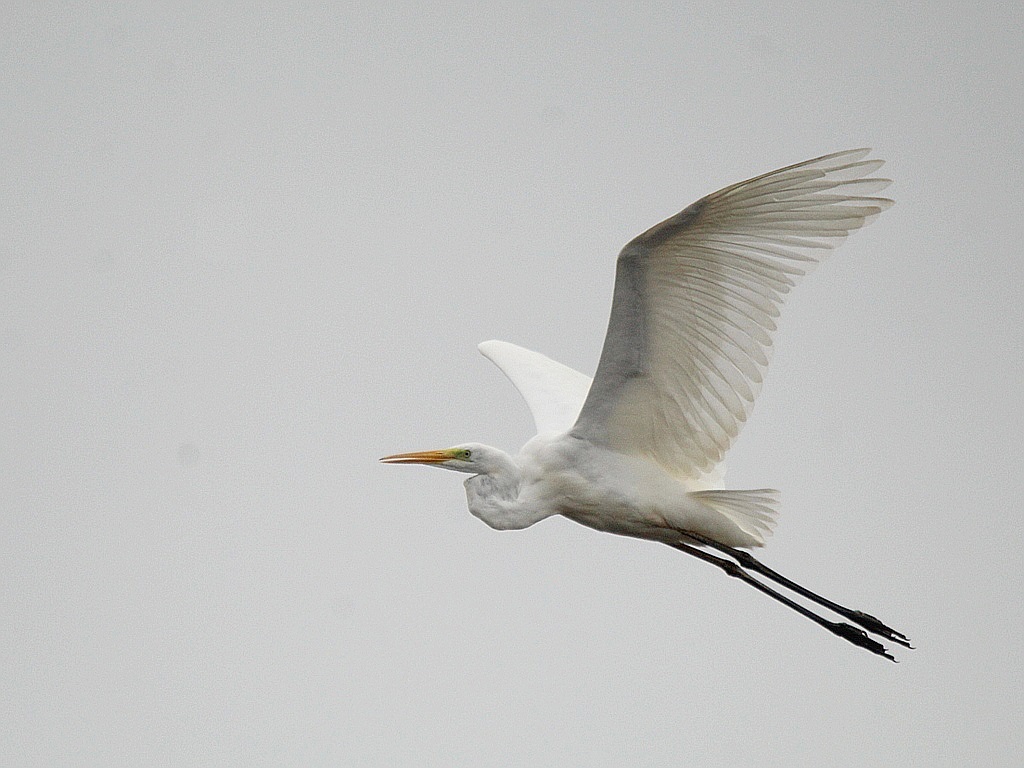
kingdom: Animalia
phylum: Chordata
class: Aves
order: Pelecaniformes
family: Ardeidae
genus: Ardea
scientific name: Ardea alba
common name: Great egret
